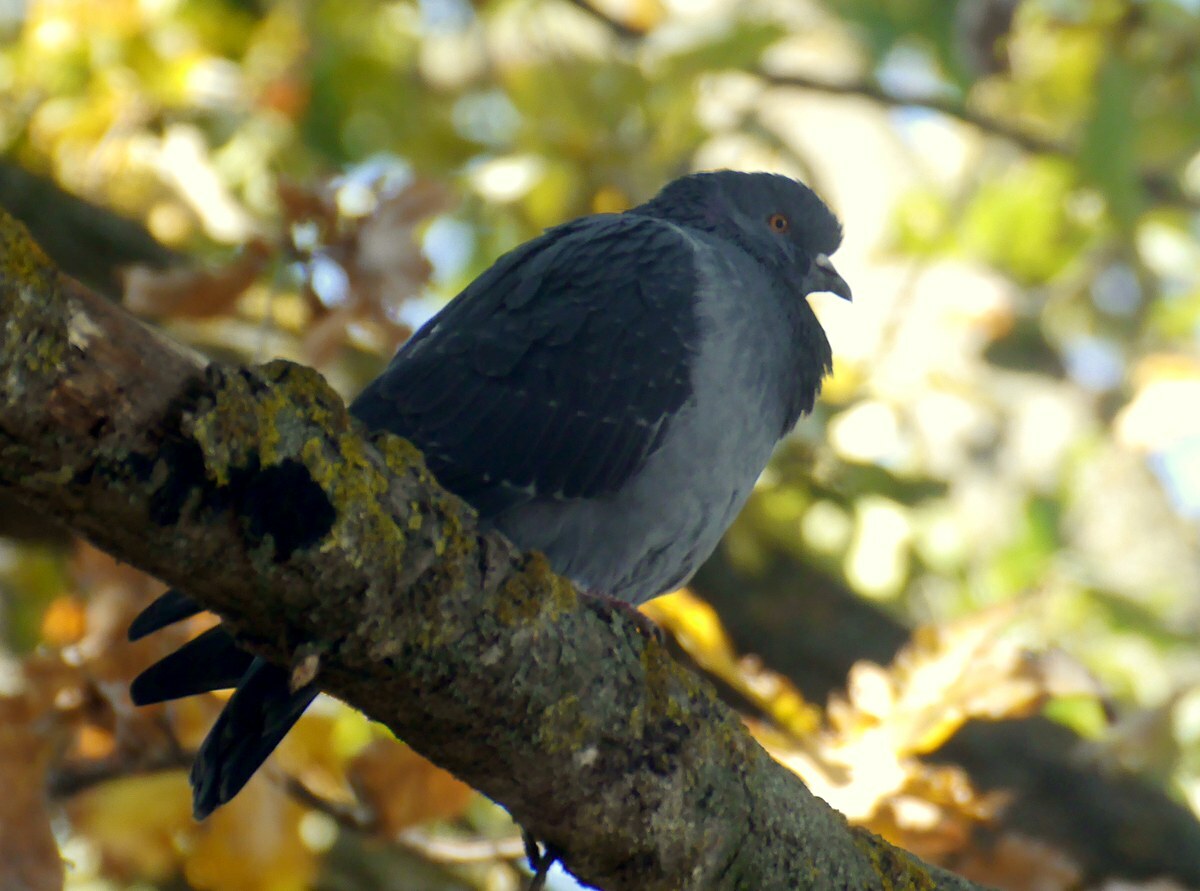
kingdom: Animalia
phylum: Chordata
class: Aves
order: Columbiformes
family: Columbidae
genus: Columba
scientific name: Columba livia
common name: Rock pigeon
